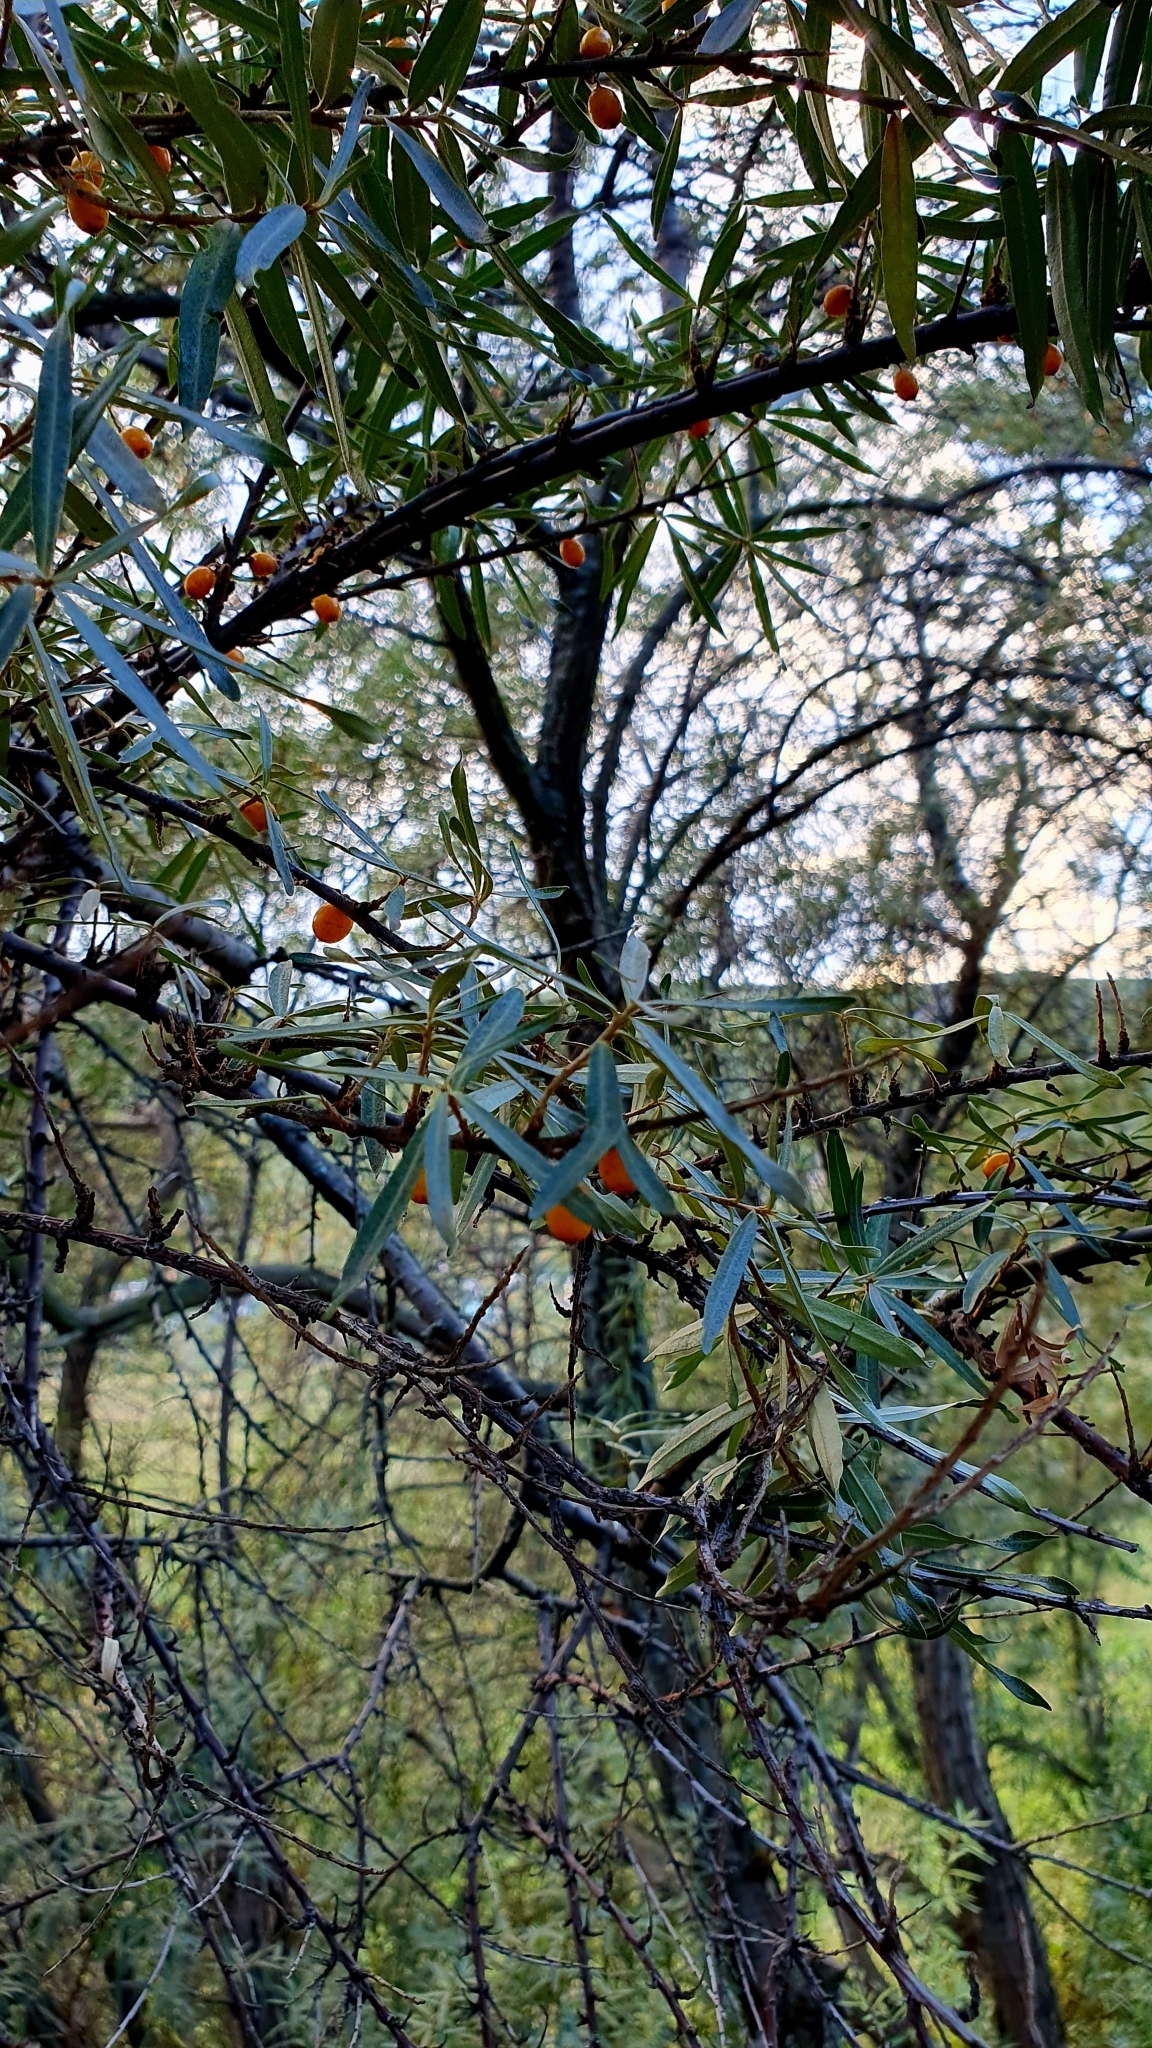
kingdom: Plantae
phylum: Tracheophyta
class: Magnoliopsida
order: Rosales
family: Elaeagnaceae
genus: Hippophae
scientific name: Hippophae rhamnoides
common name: Sea-buckthorn
